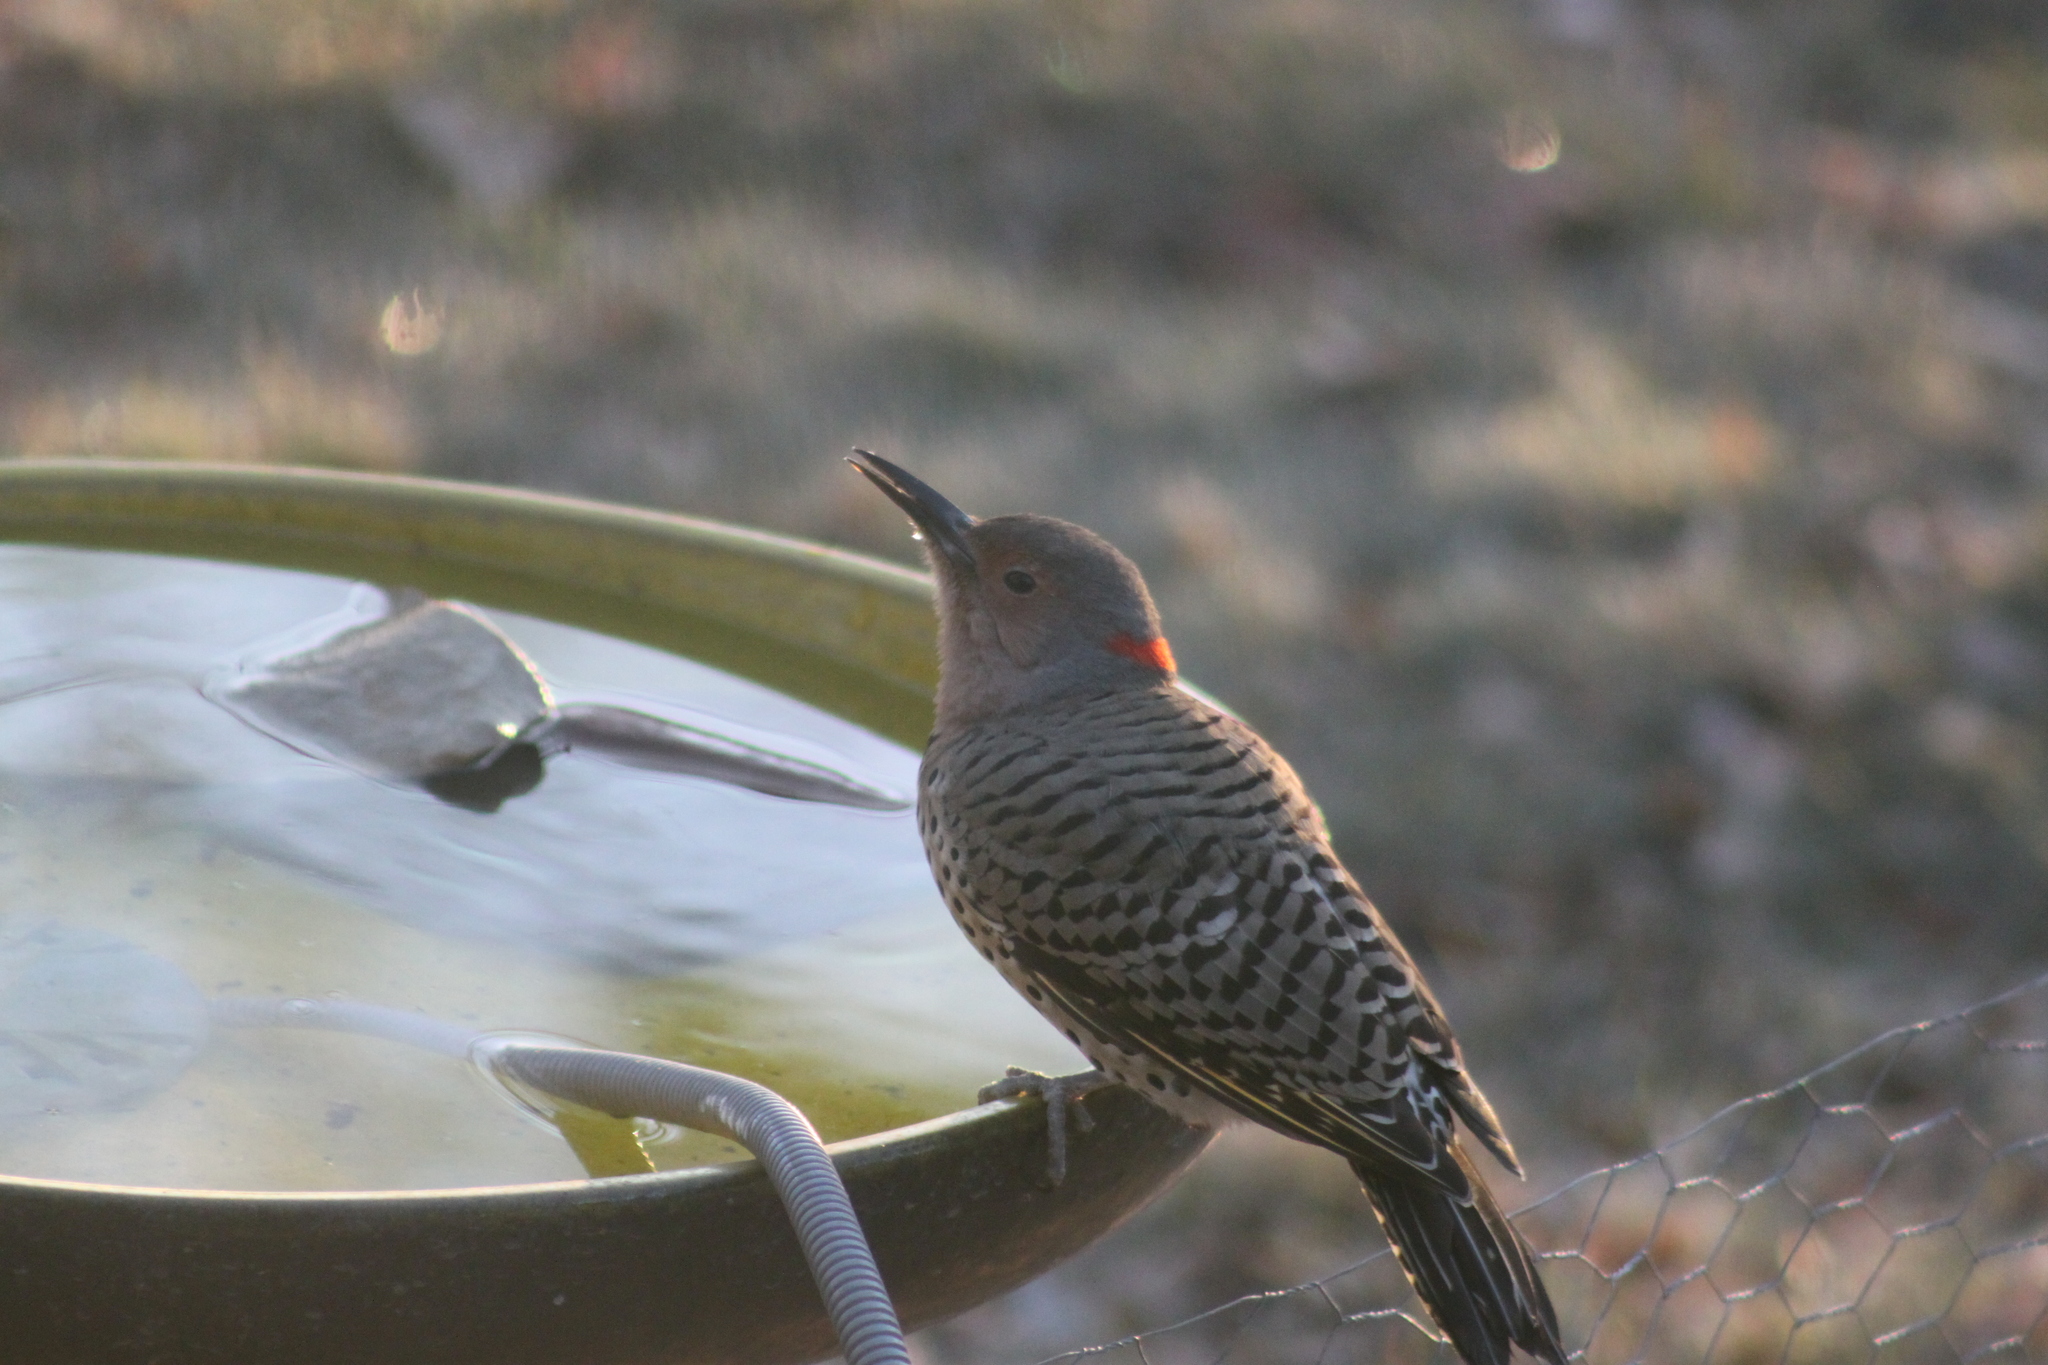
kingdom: Animalia
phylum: Chordata
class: Aves
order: Piciformes
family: Picidae
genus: Colaptes
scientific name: Colaptes auratus
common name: Northern flicker
